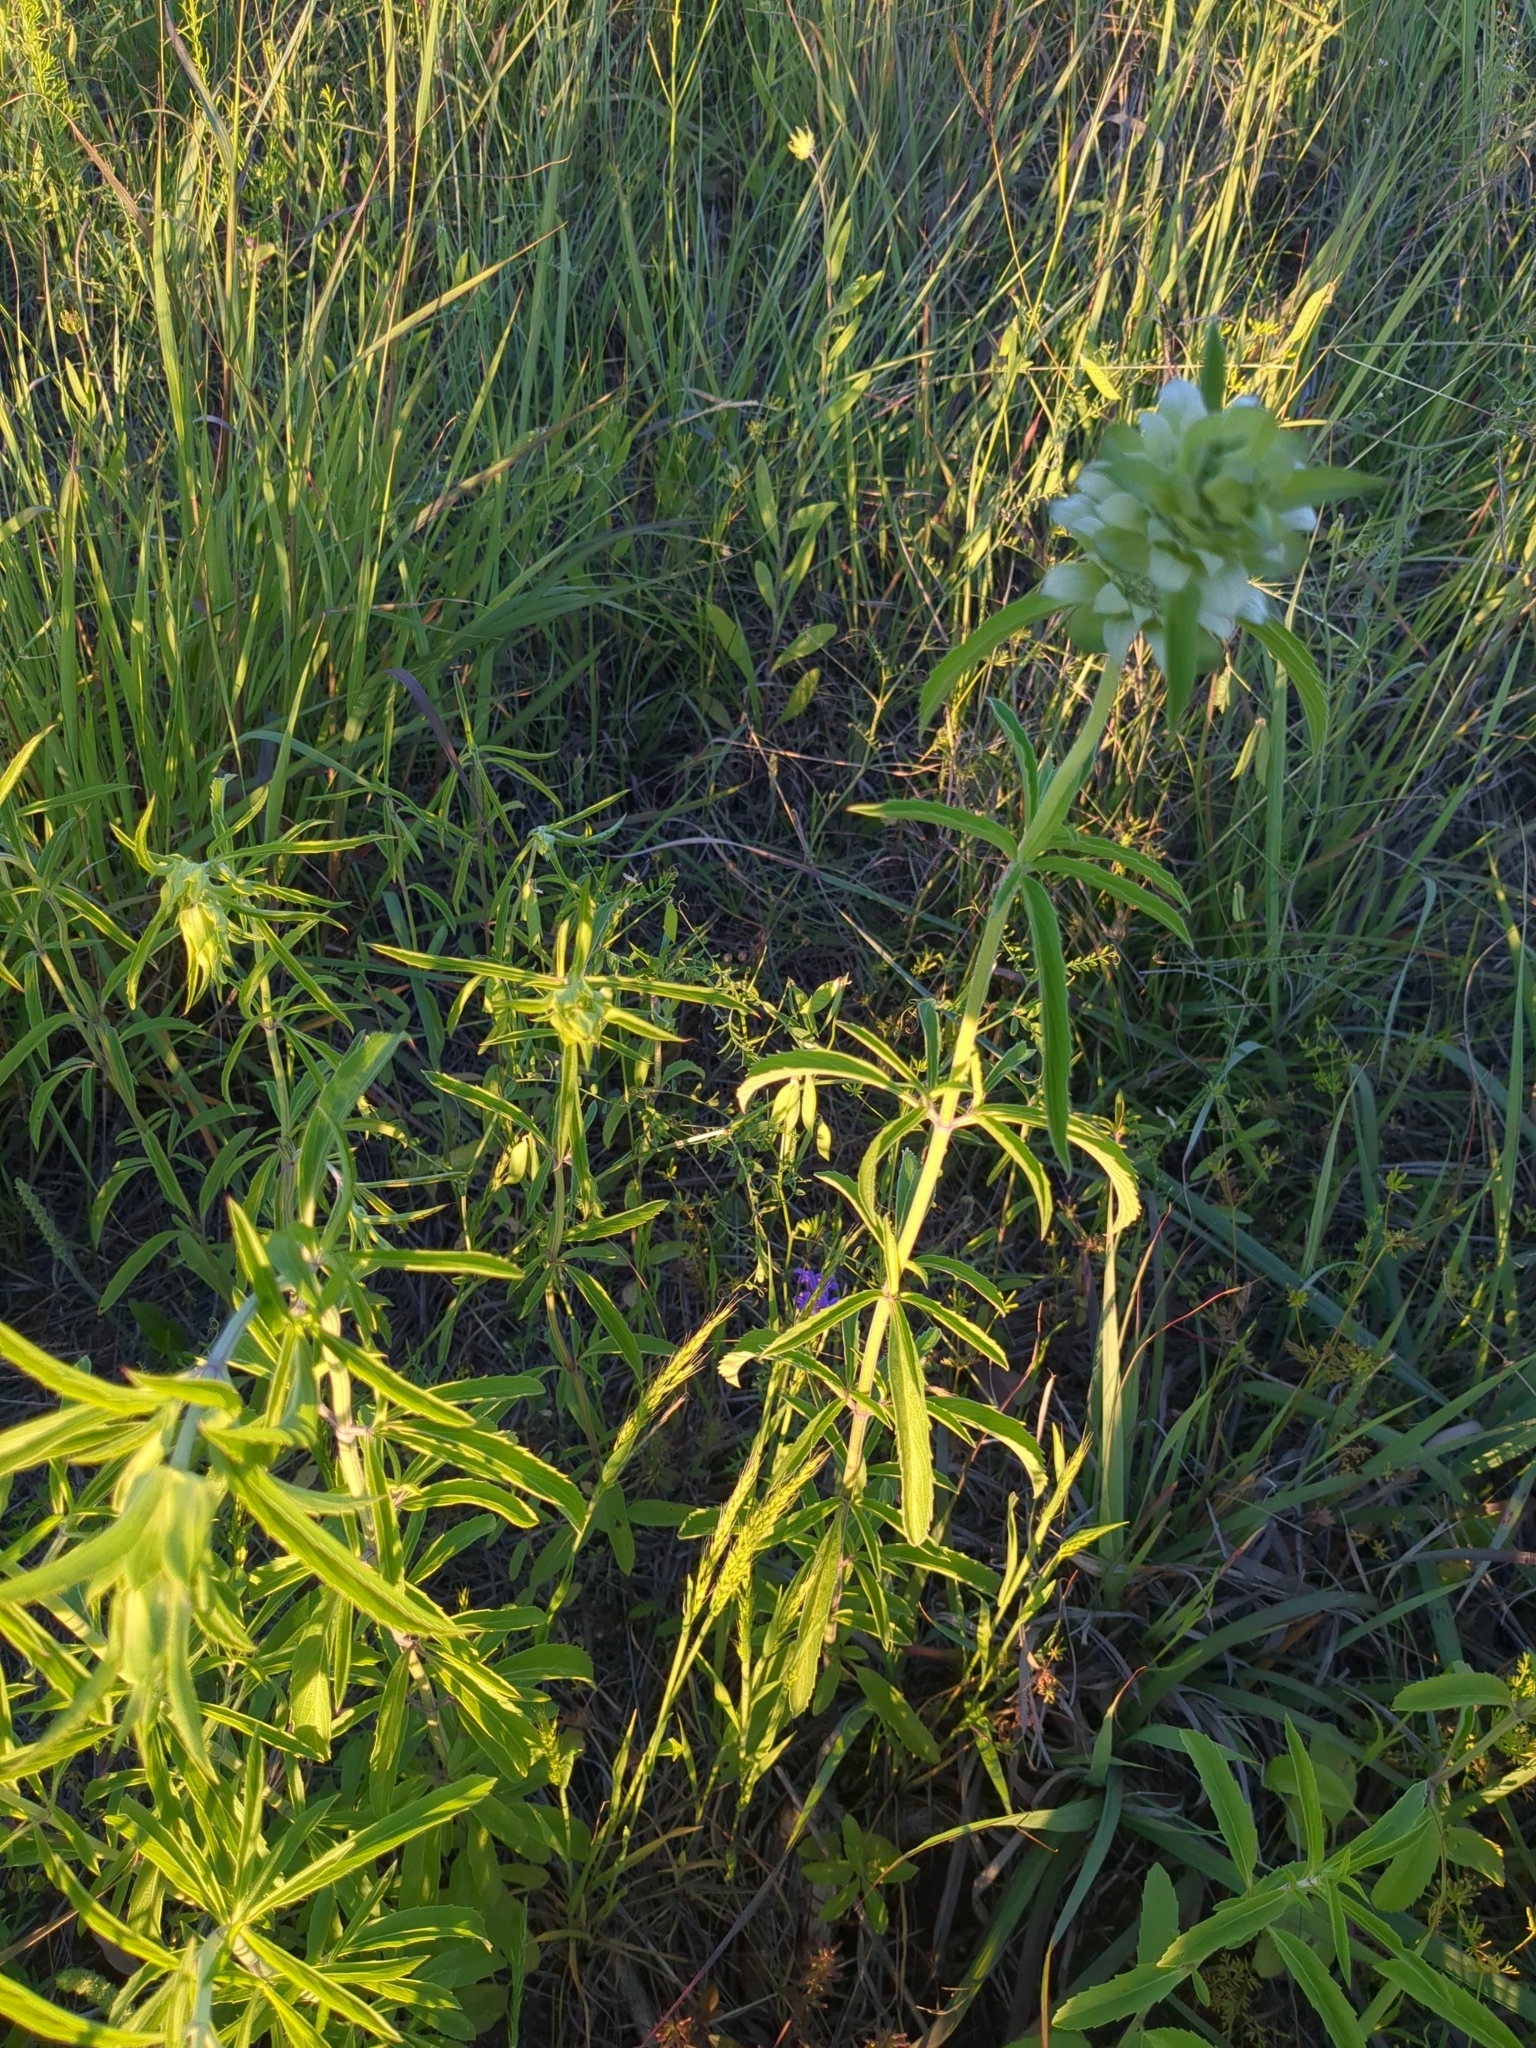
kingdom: Plantae
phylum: Tracheophyta
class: Magnoliopsida
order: Lamiales
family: Lamiaceae
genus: Monarda
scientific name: Monarda citriodora
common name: Lemon beebalm
